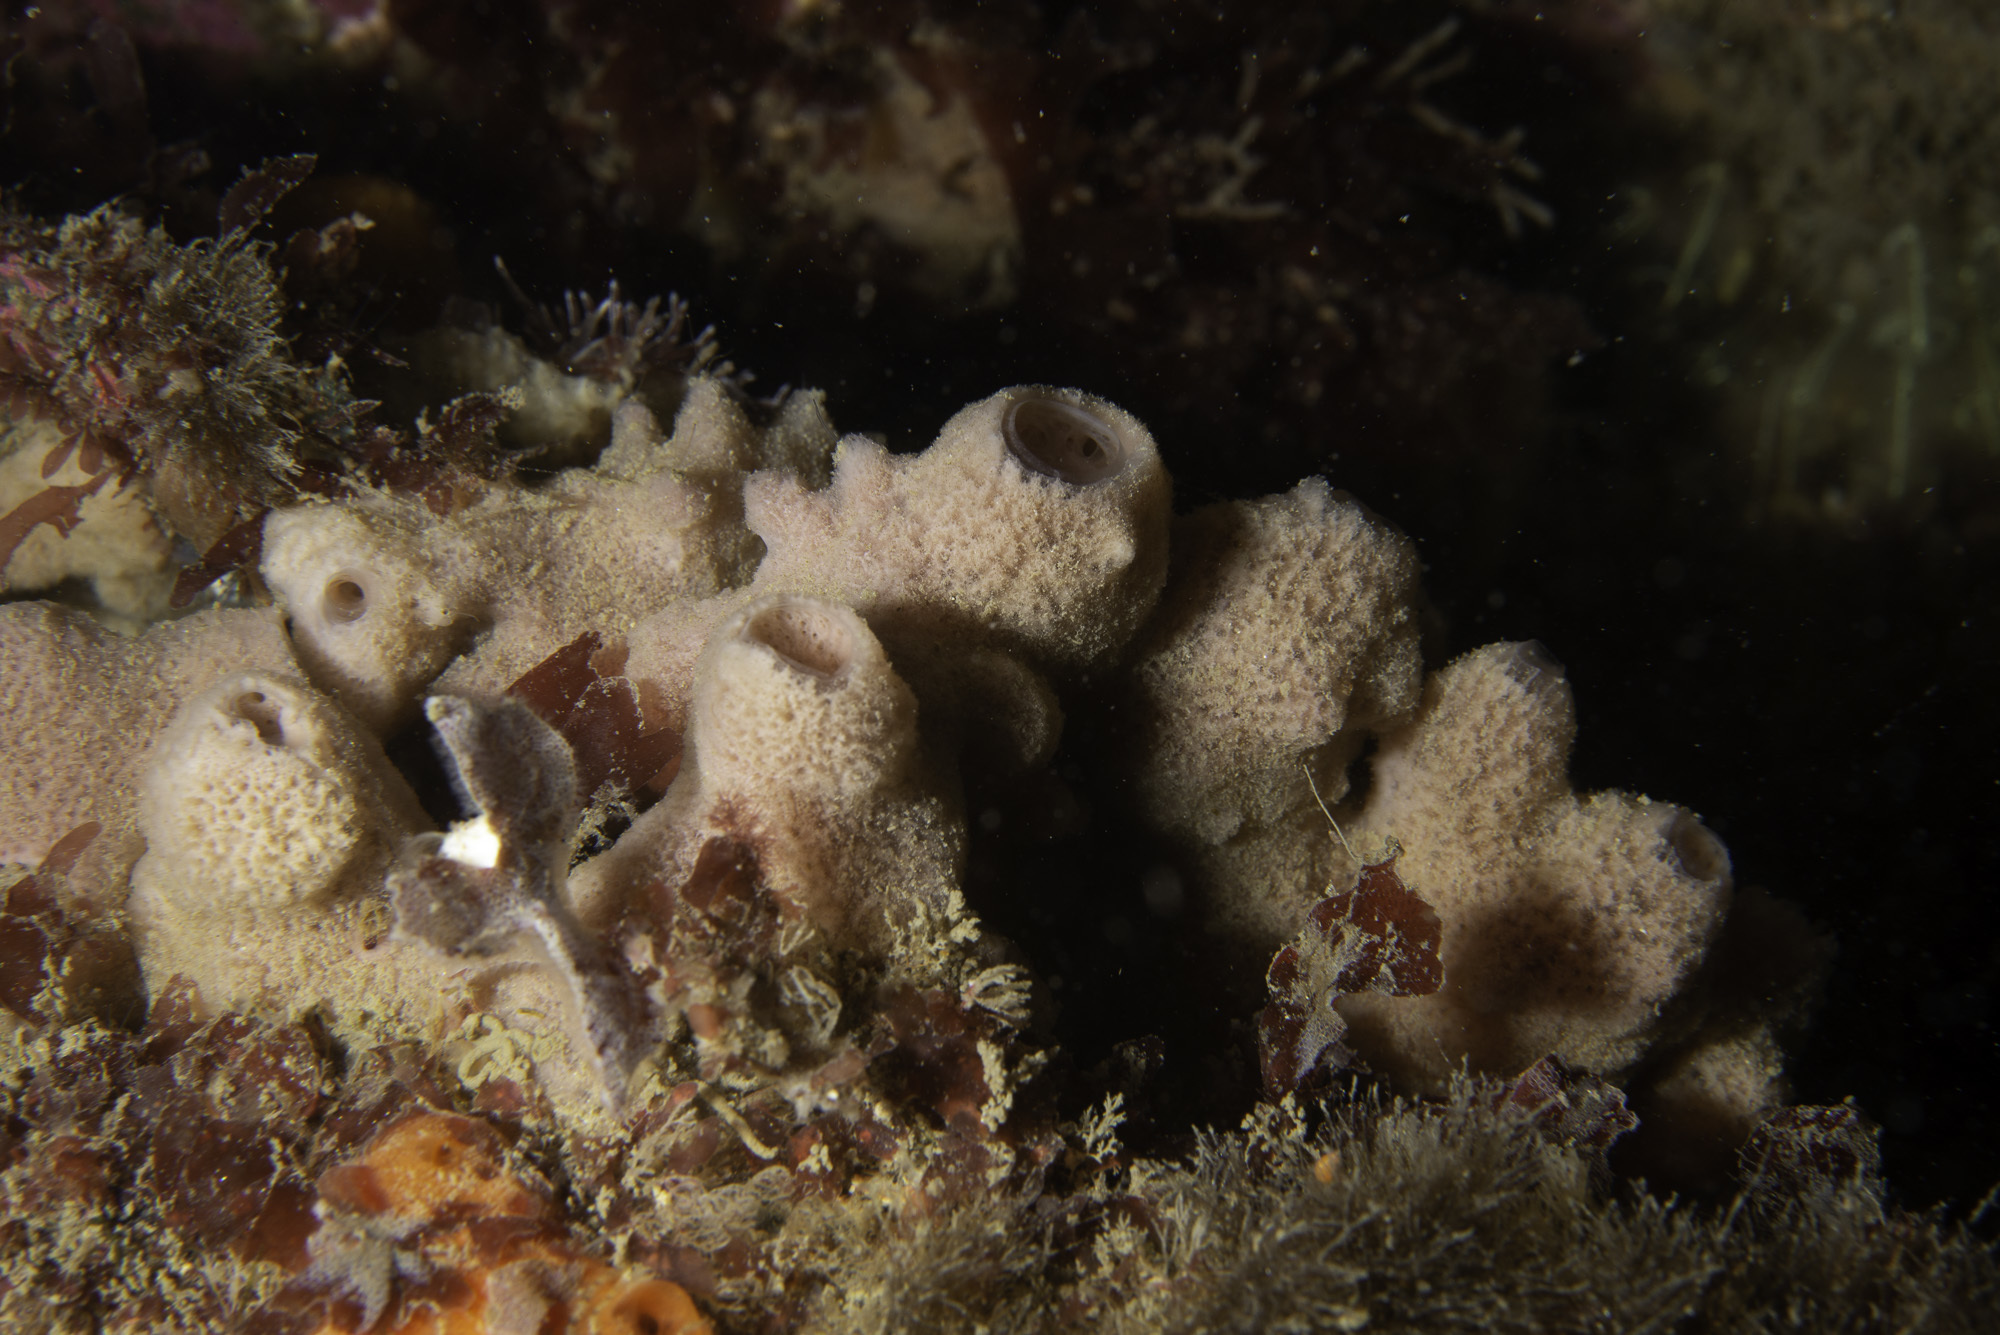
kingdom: Animalia
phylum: Porifera
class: Demospongiae
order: Haplosclerida
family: Chalinidae
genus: Haliclona
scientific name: Haliclona viscosa
